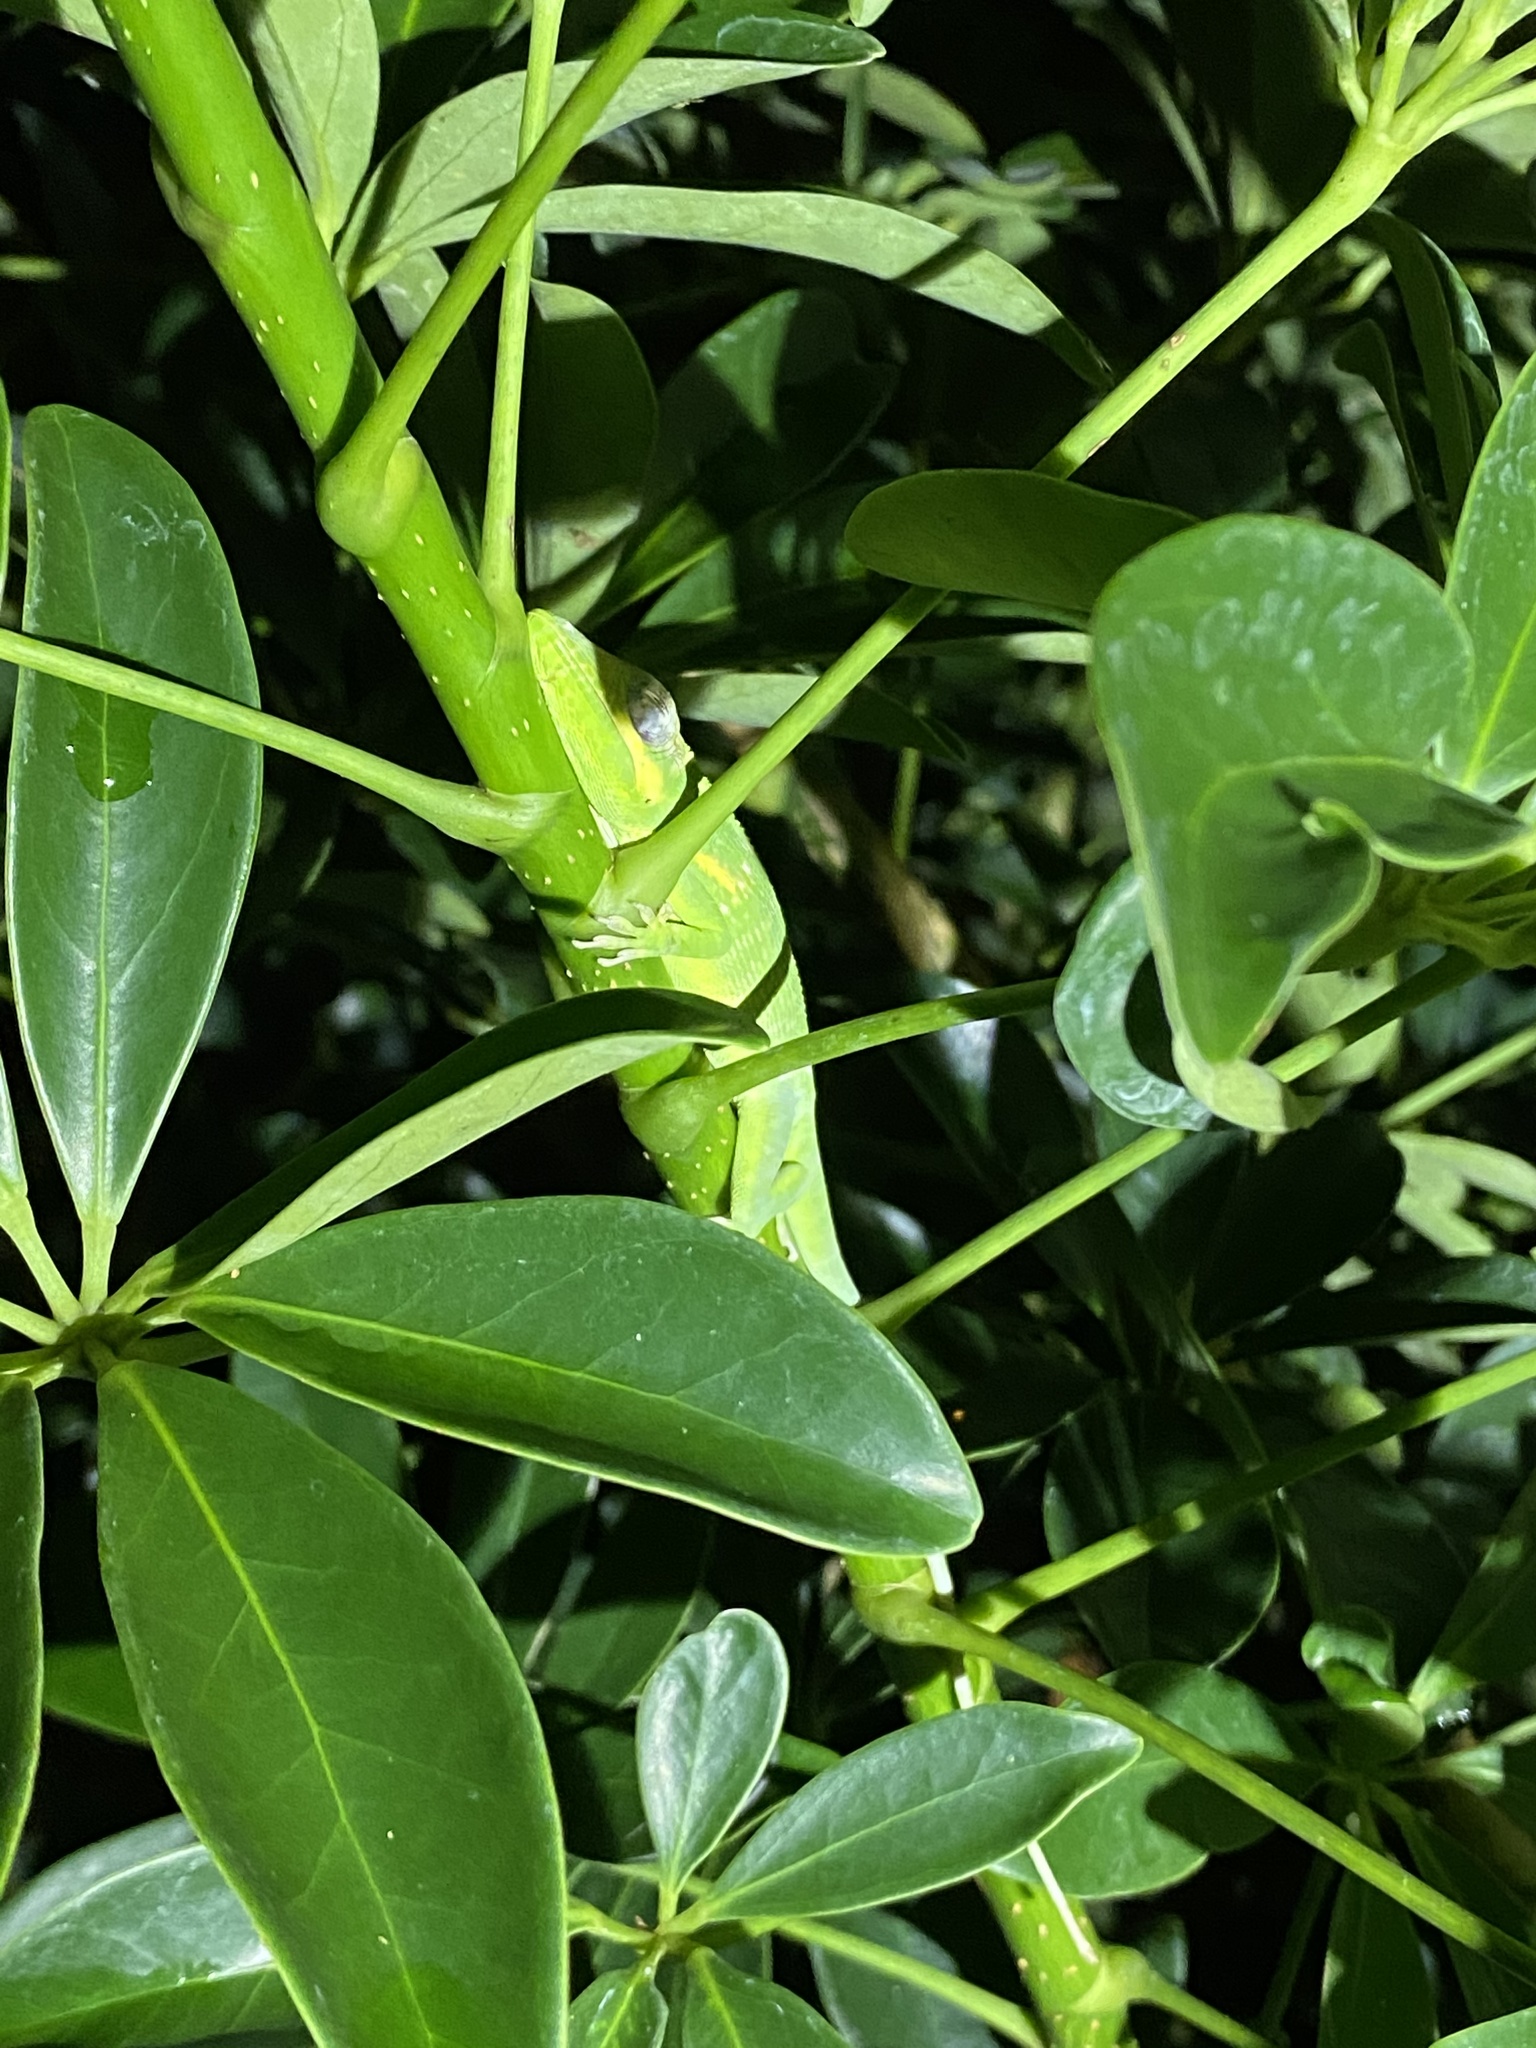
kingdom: Animalia
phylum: Chordata
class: Squamata
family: Dactyloidae
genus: Anolis
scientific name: Anolis equestris
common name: Knight anole
